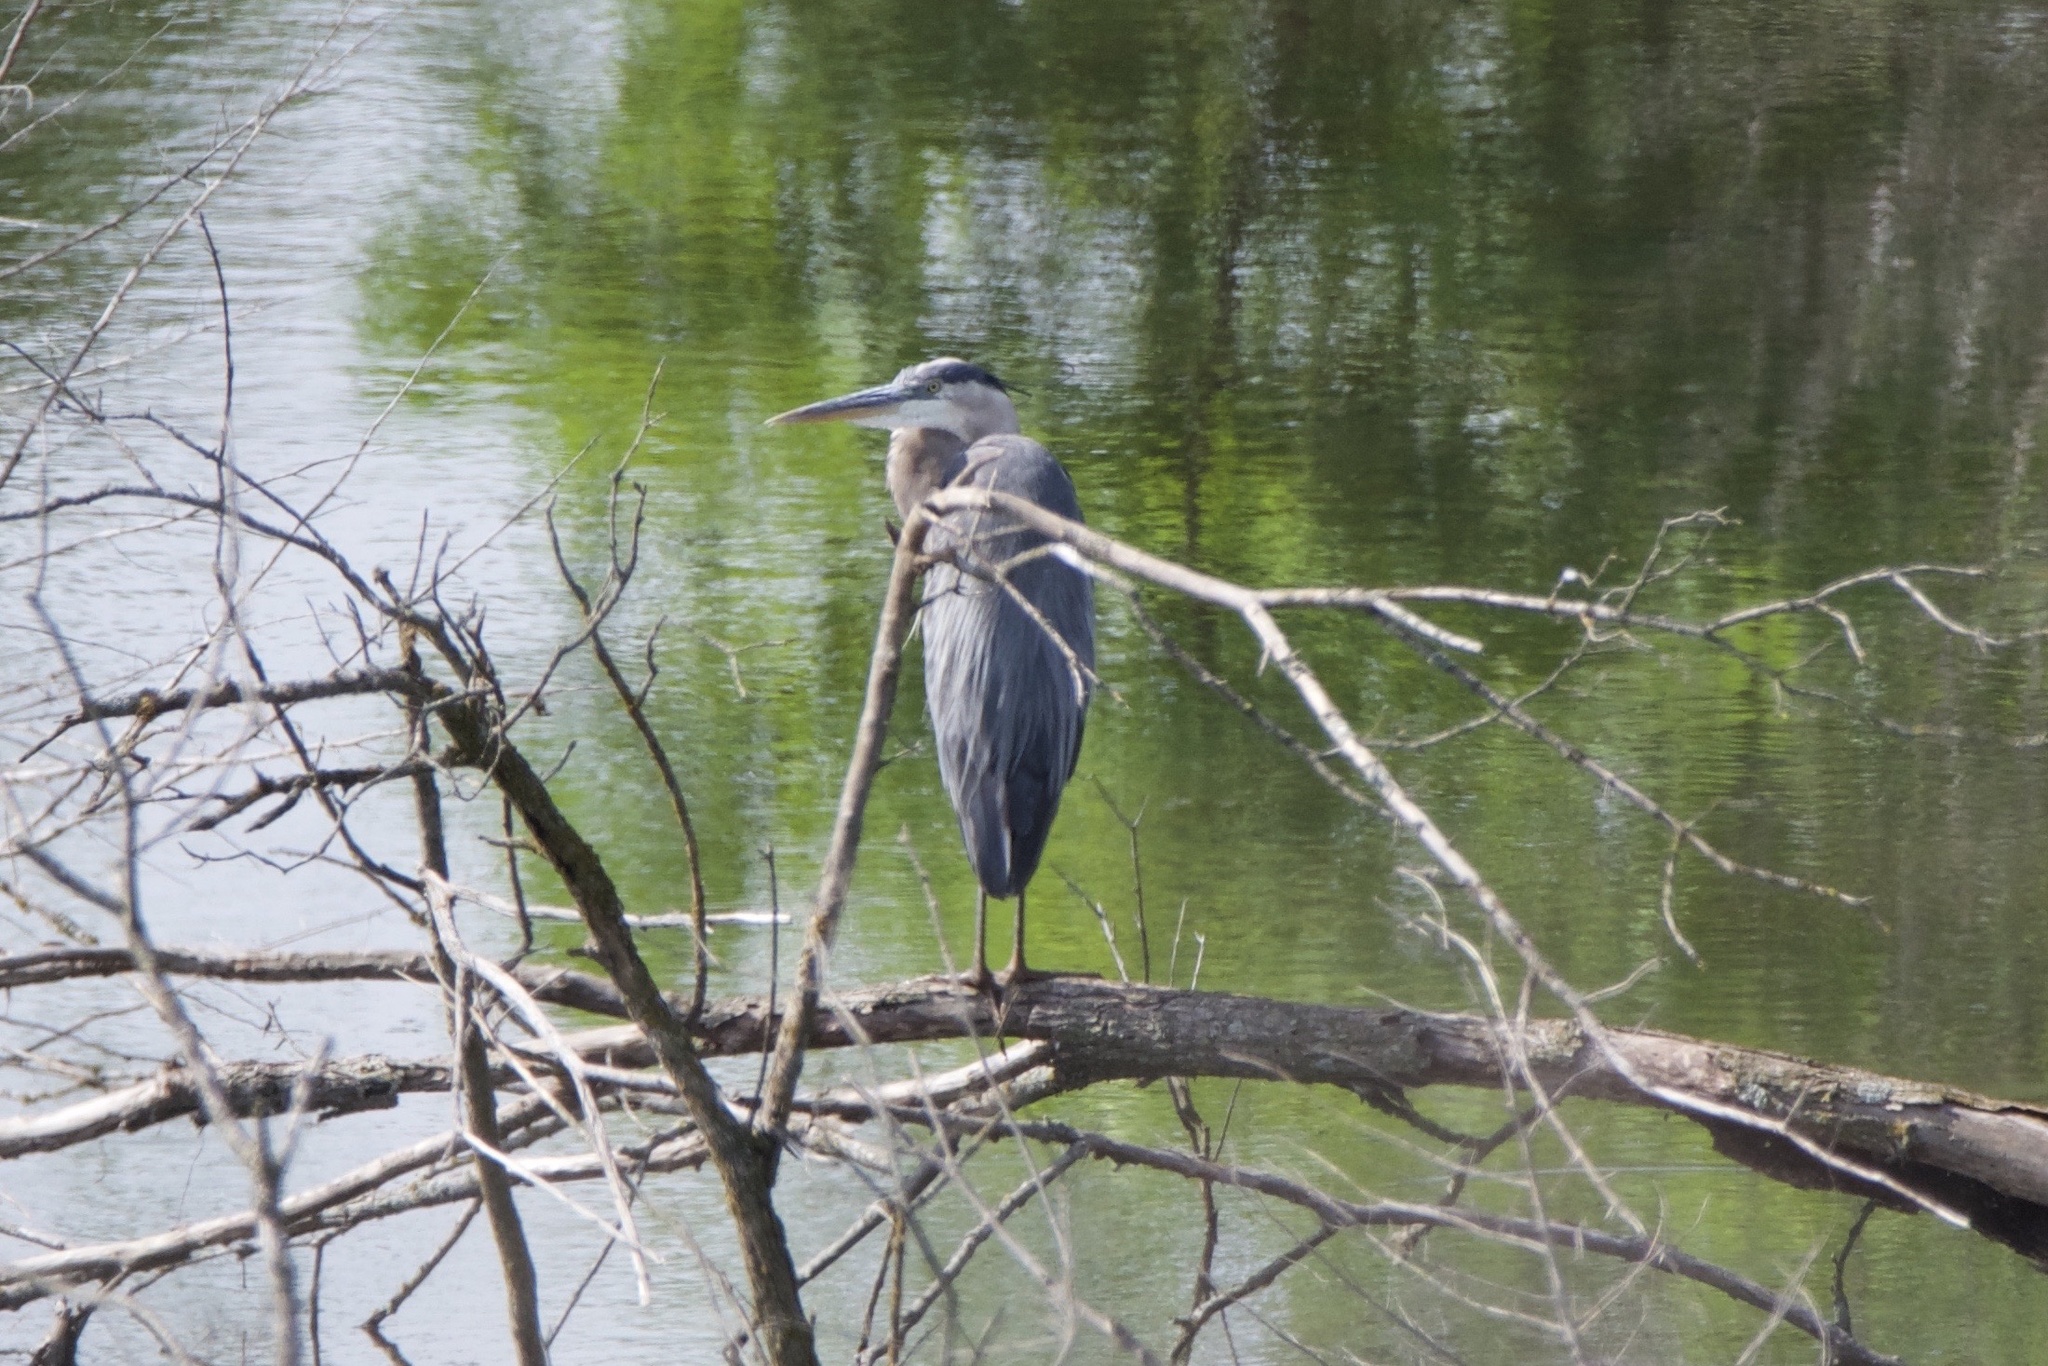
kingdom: Animalia
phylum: Chordata
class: Aves
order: Pelecaniformes
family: Ardeidae
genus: Ardea
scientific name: Ardea herodias
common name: Great blue heron
